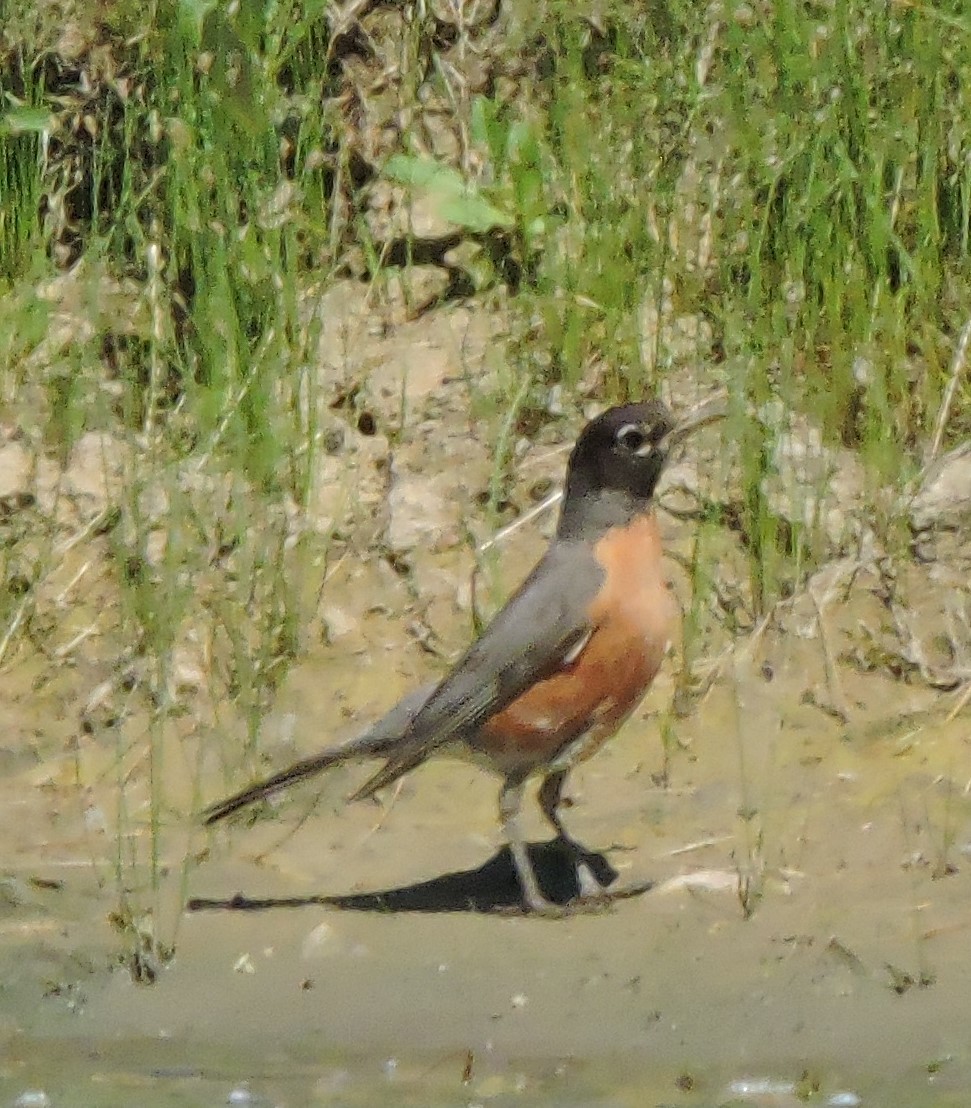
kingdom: Animalia
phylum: Chordata
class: Aves
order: Passeriformes
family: Turdidae
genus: Turdus
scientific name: Turdus migratorius
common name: American robin
